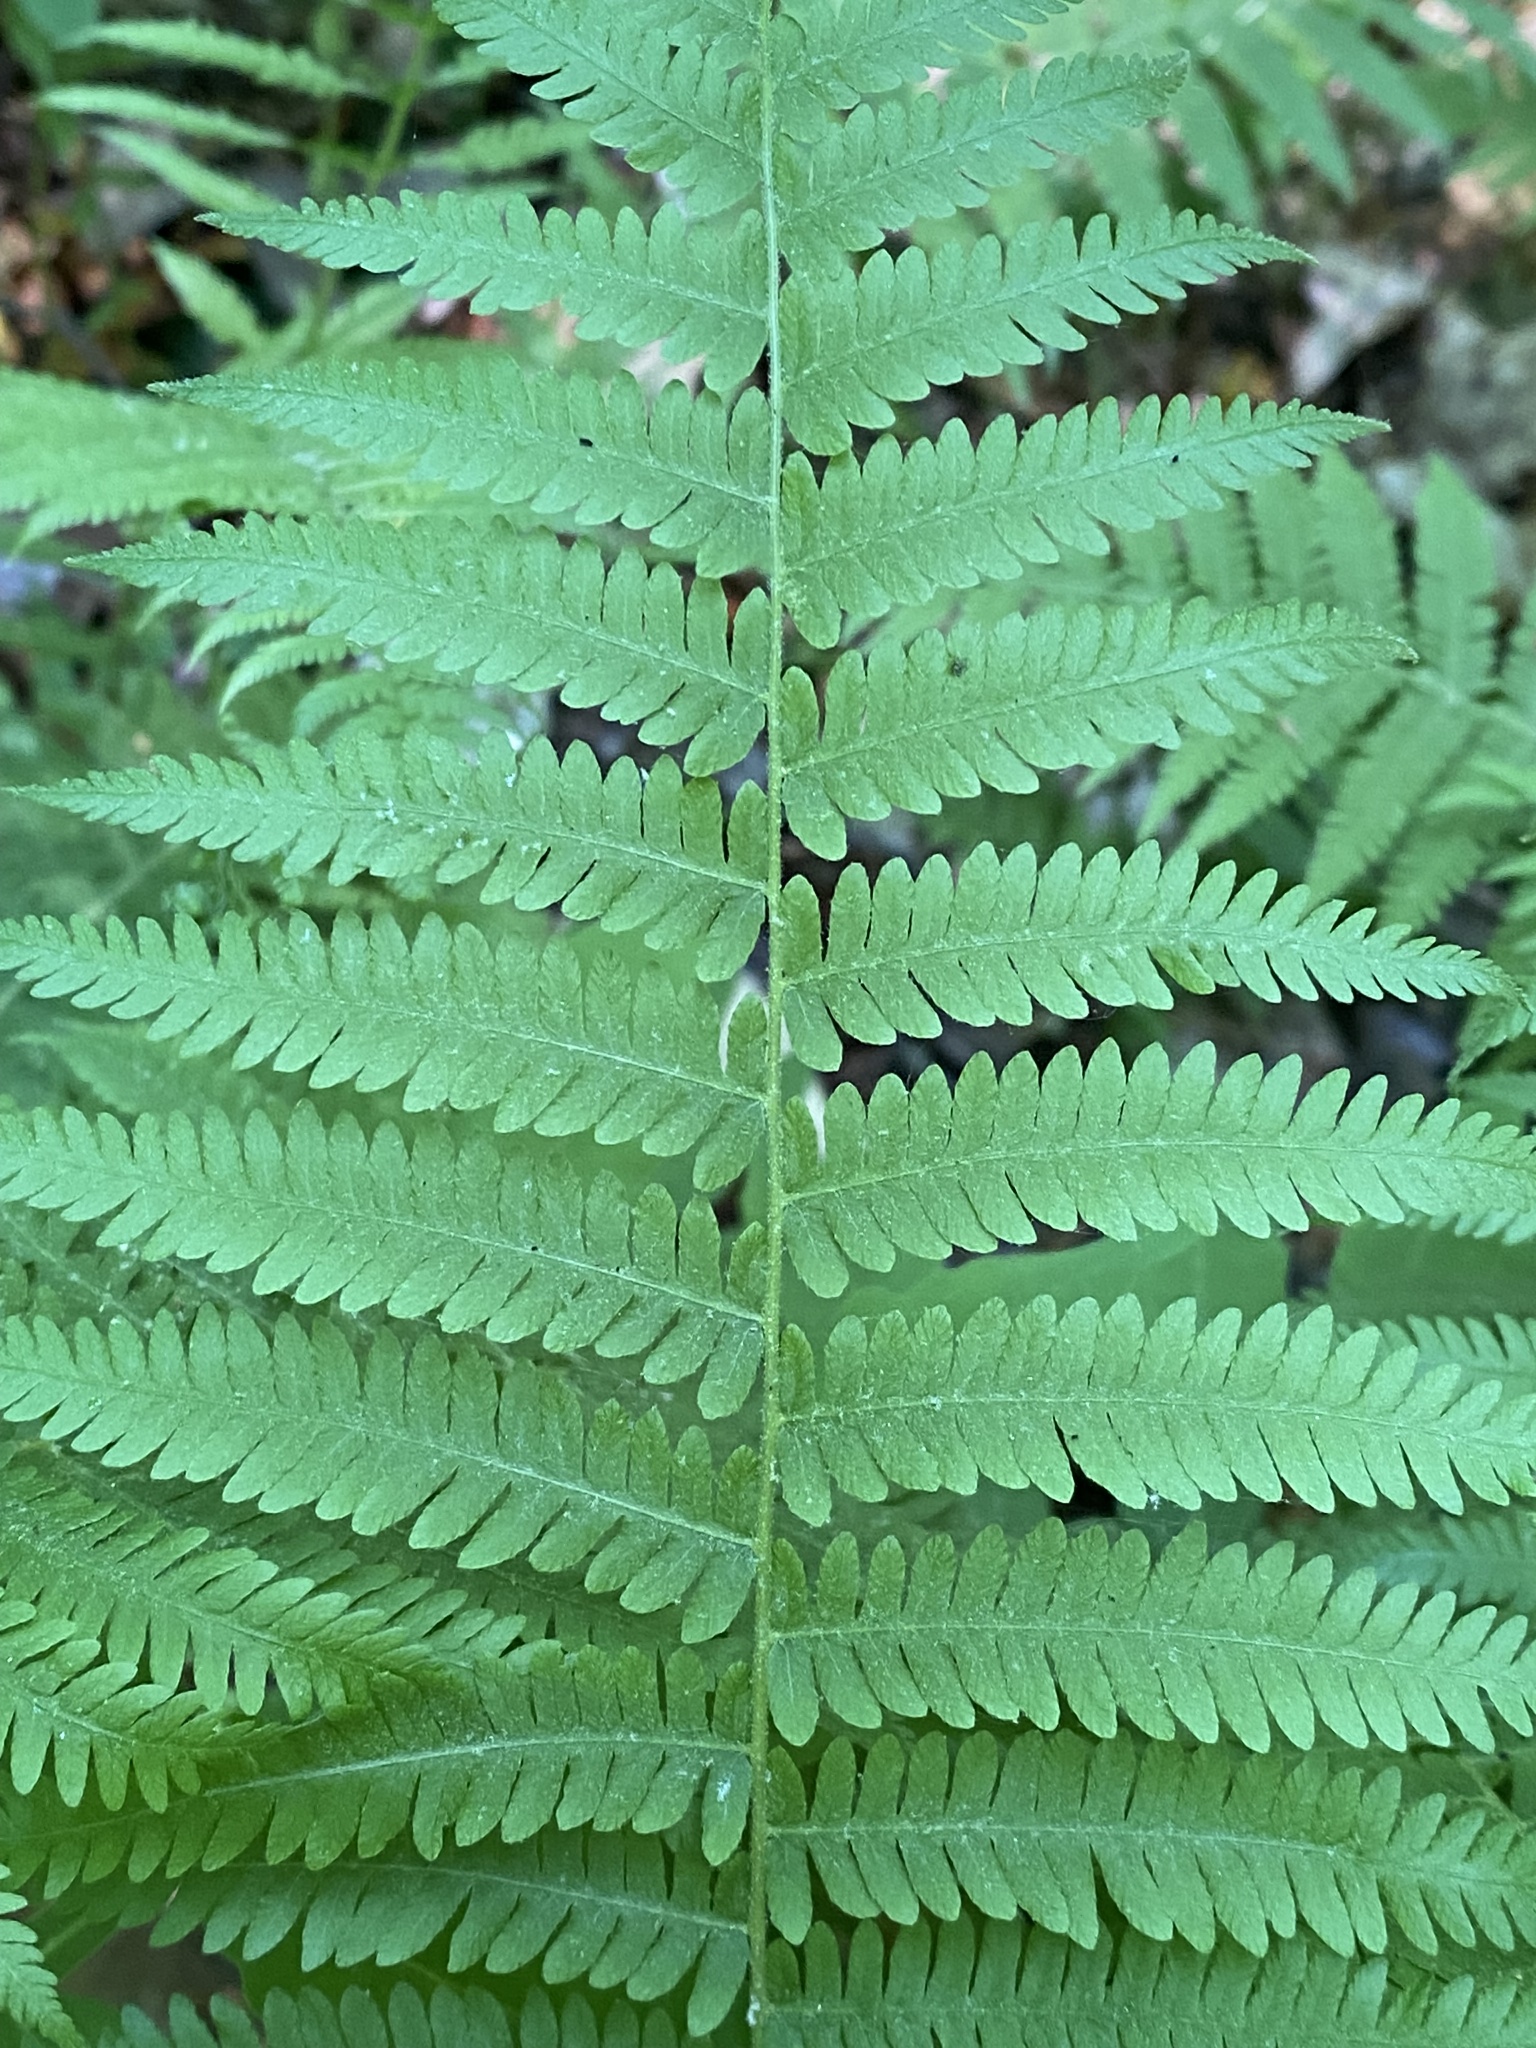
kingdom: Plantae
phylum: Tracheophyta
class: Polypodiopsida
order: Polypodiales
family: Thelypteridaceae
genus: Amauropelta
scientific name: Amauropelta noveboracensis
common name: New york fern
